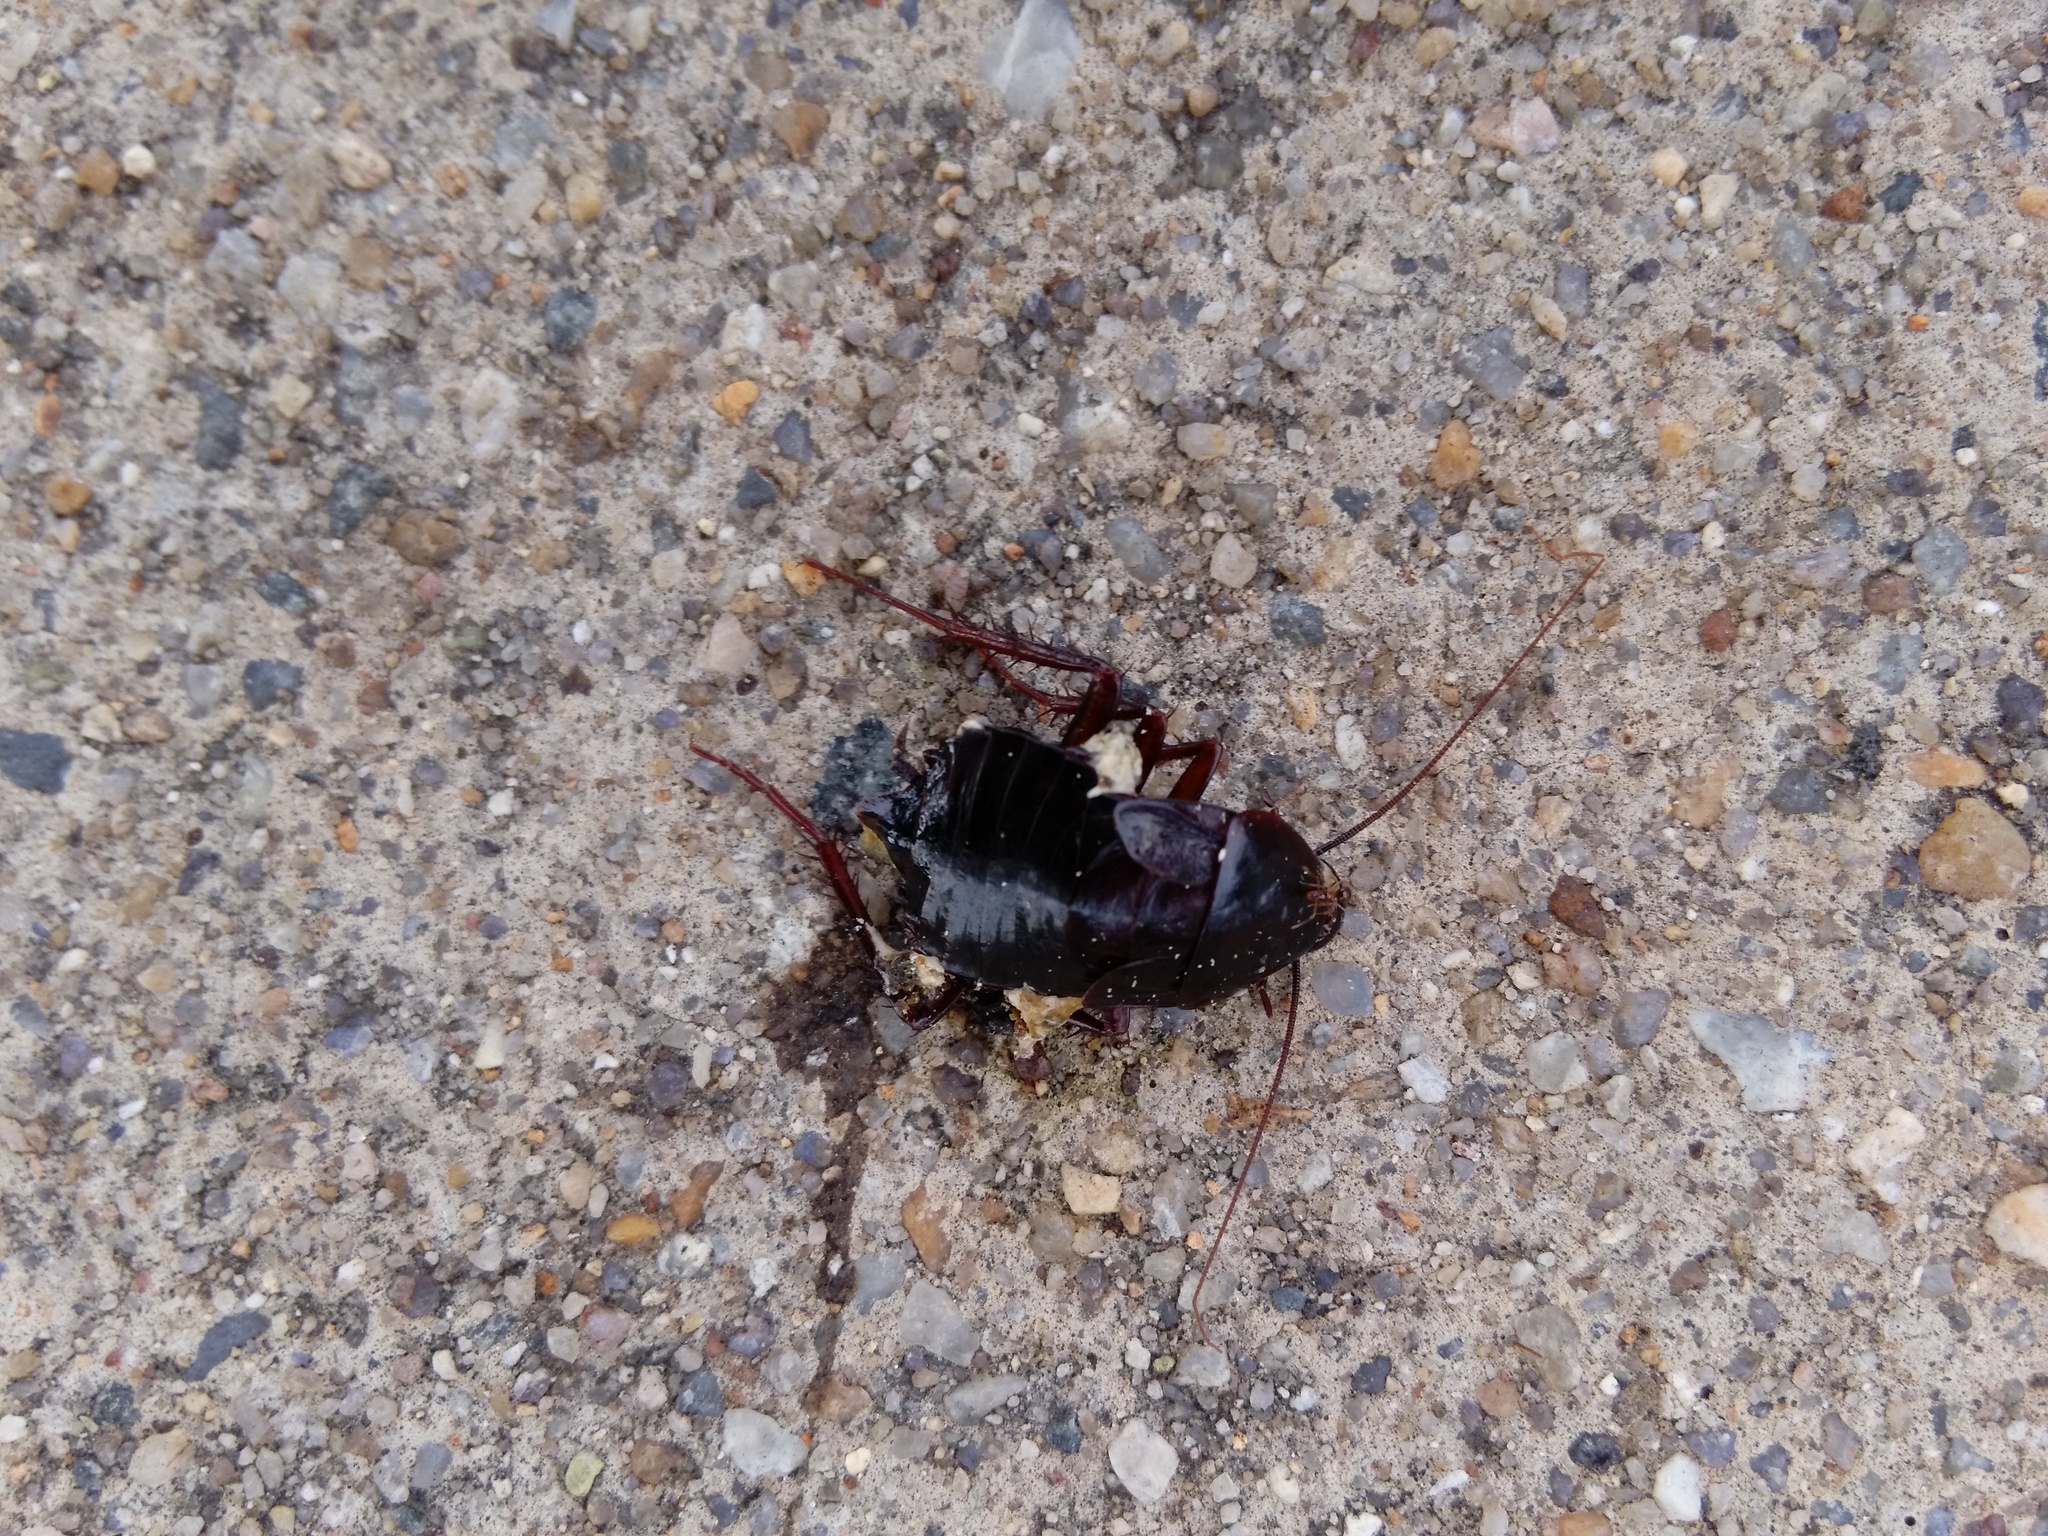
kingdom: Animalia
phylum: Arthropoda
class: Insecta
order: Blattodea
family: Blattidae
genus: Blatta
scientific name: Blatta orientalis
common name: Oriental cockroach
